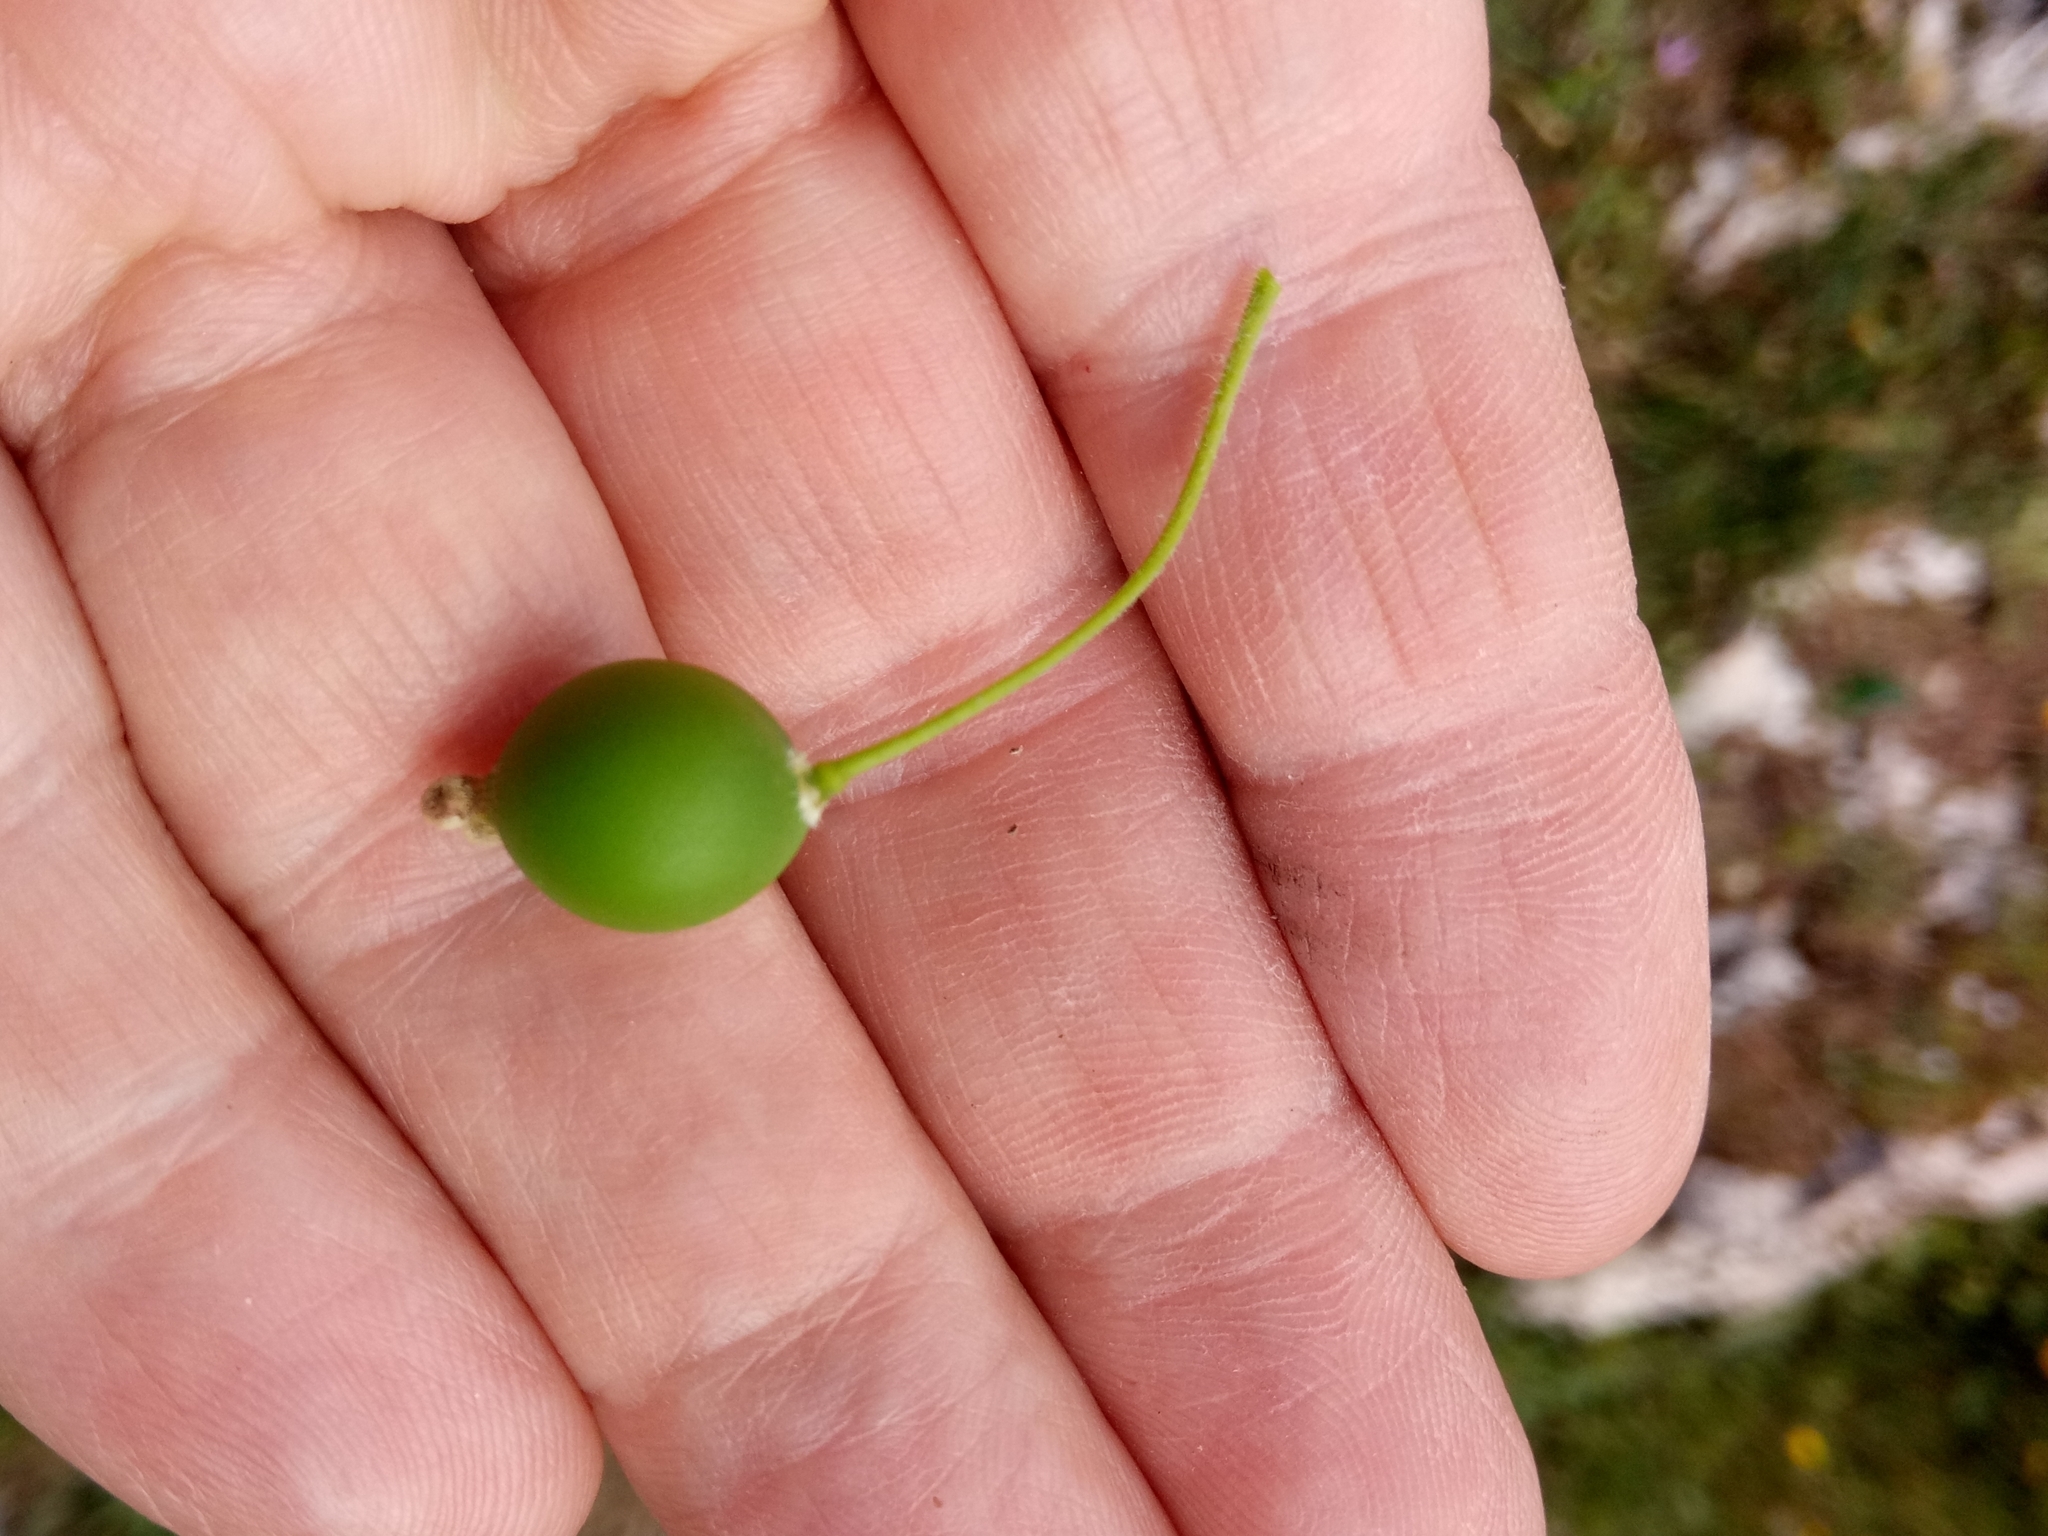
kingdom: Plantae
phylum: Tracheophyta
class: Magnoliopsida
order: Rosales
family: Cannabaceae
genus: Celtis
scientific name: Celtis australis
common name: European hackberry
